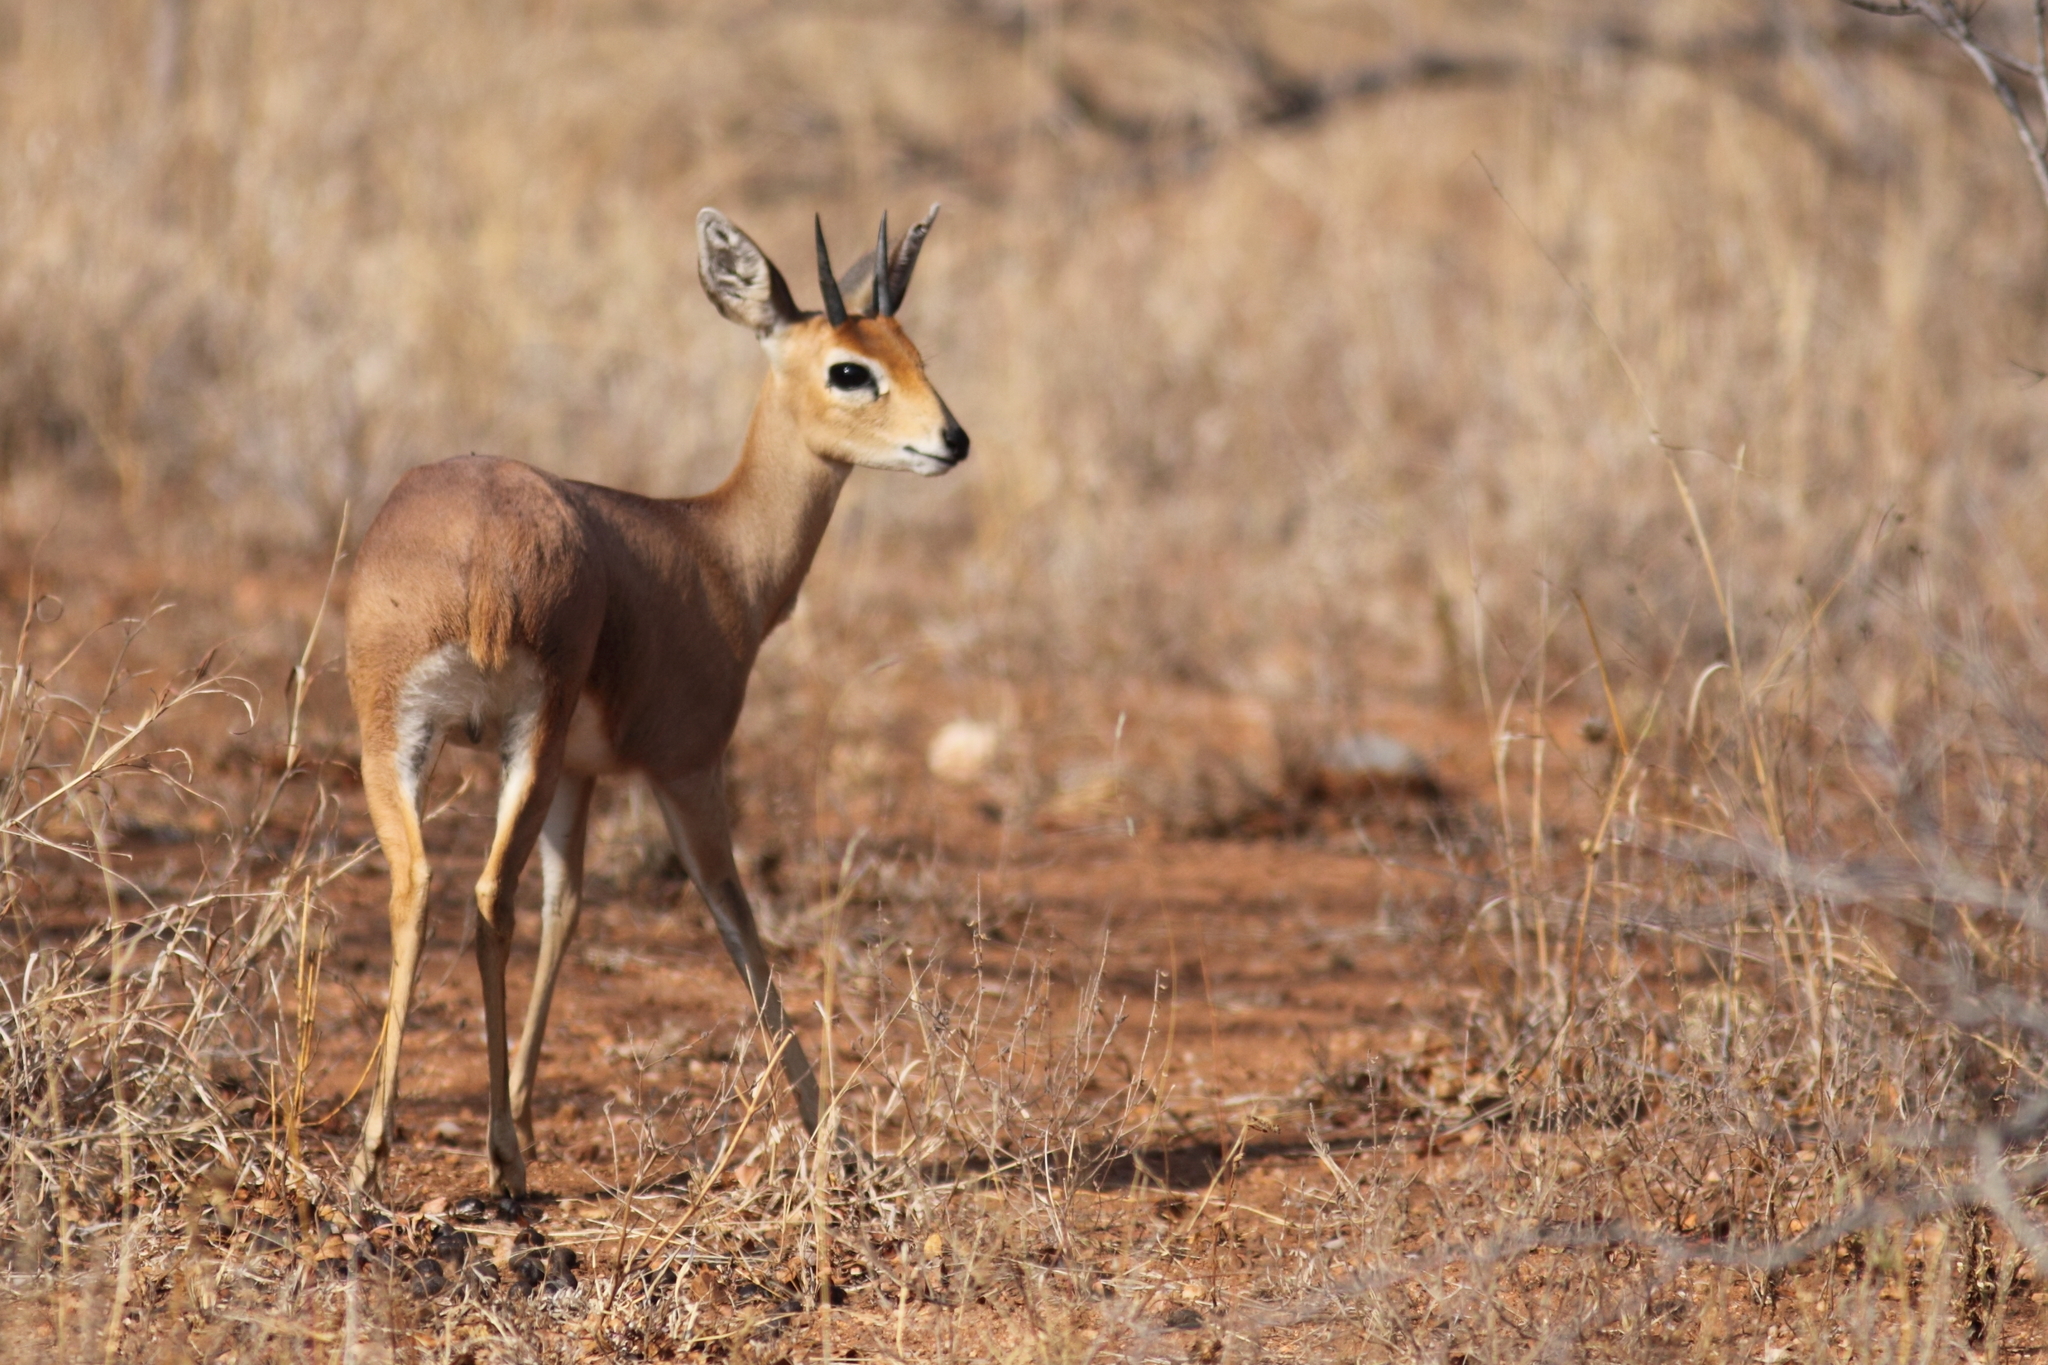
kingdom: Animalia
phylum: Chordata
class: Mammalia
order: Artiodactyla
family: Bovidae
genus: Raphicerus
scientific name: Raphicerus campestris
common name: Steenbok
